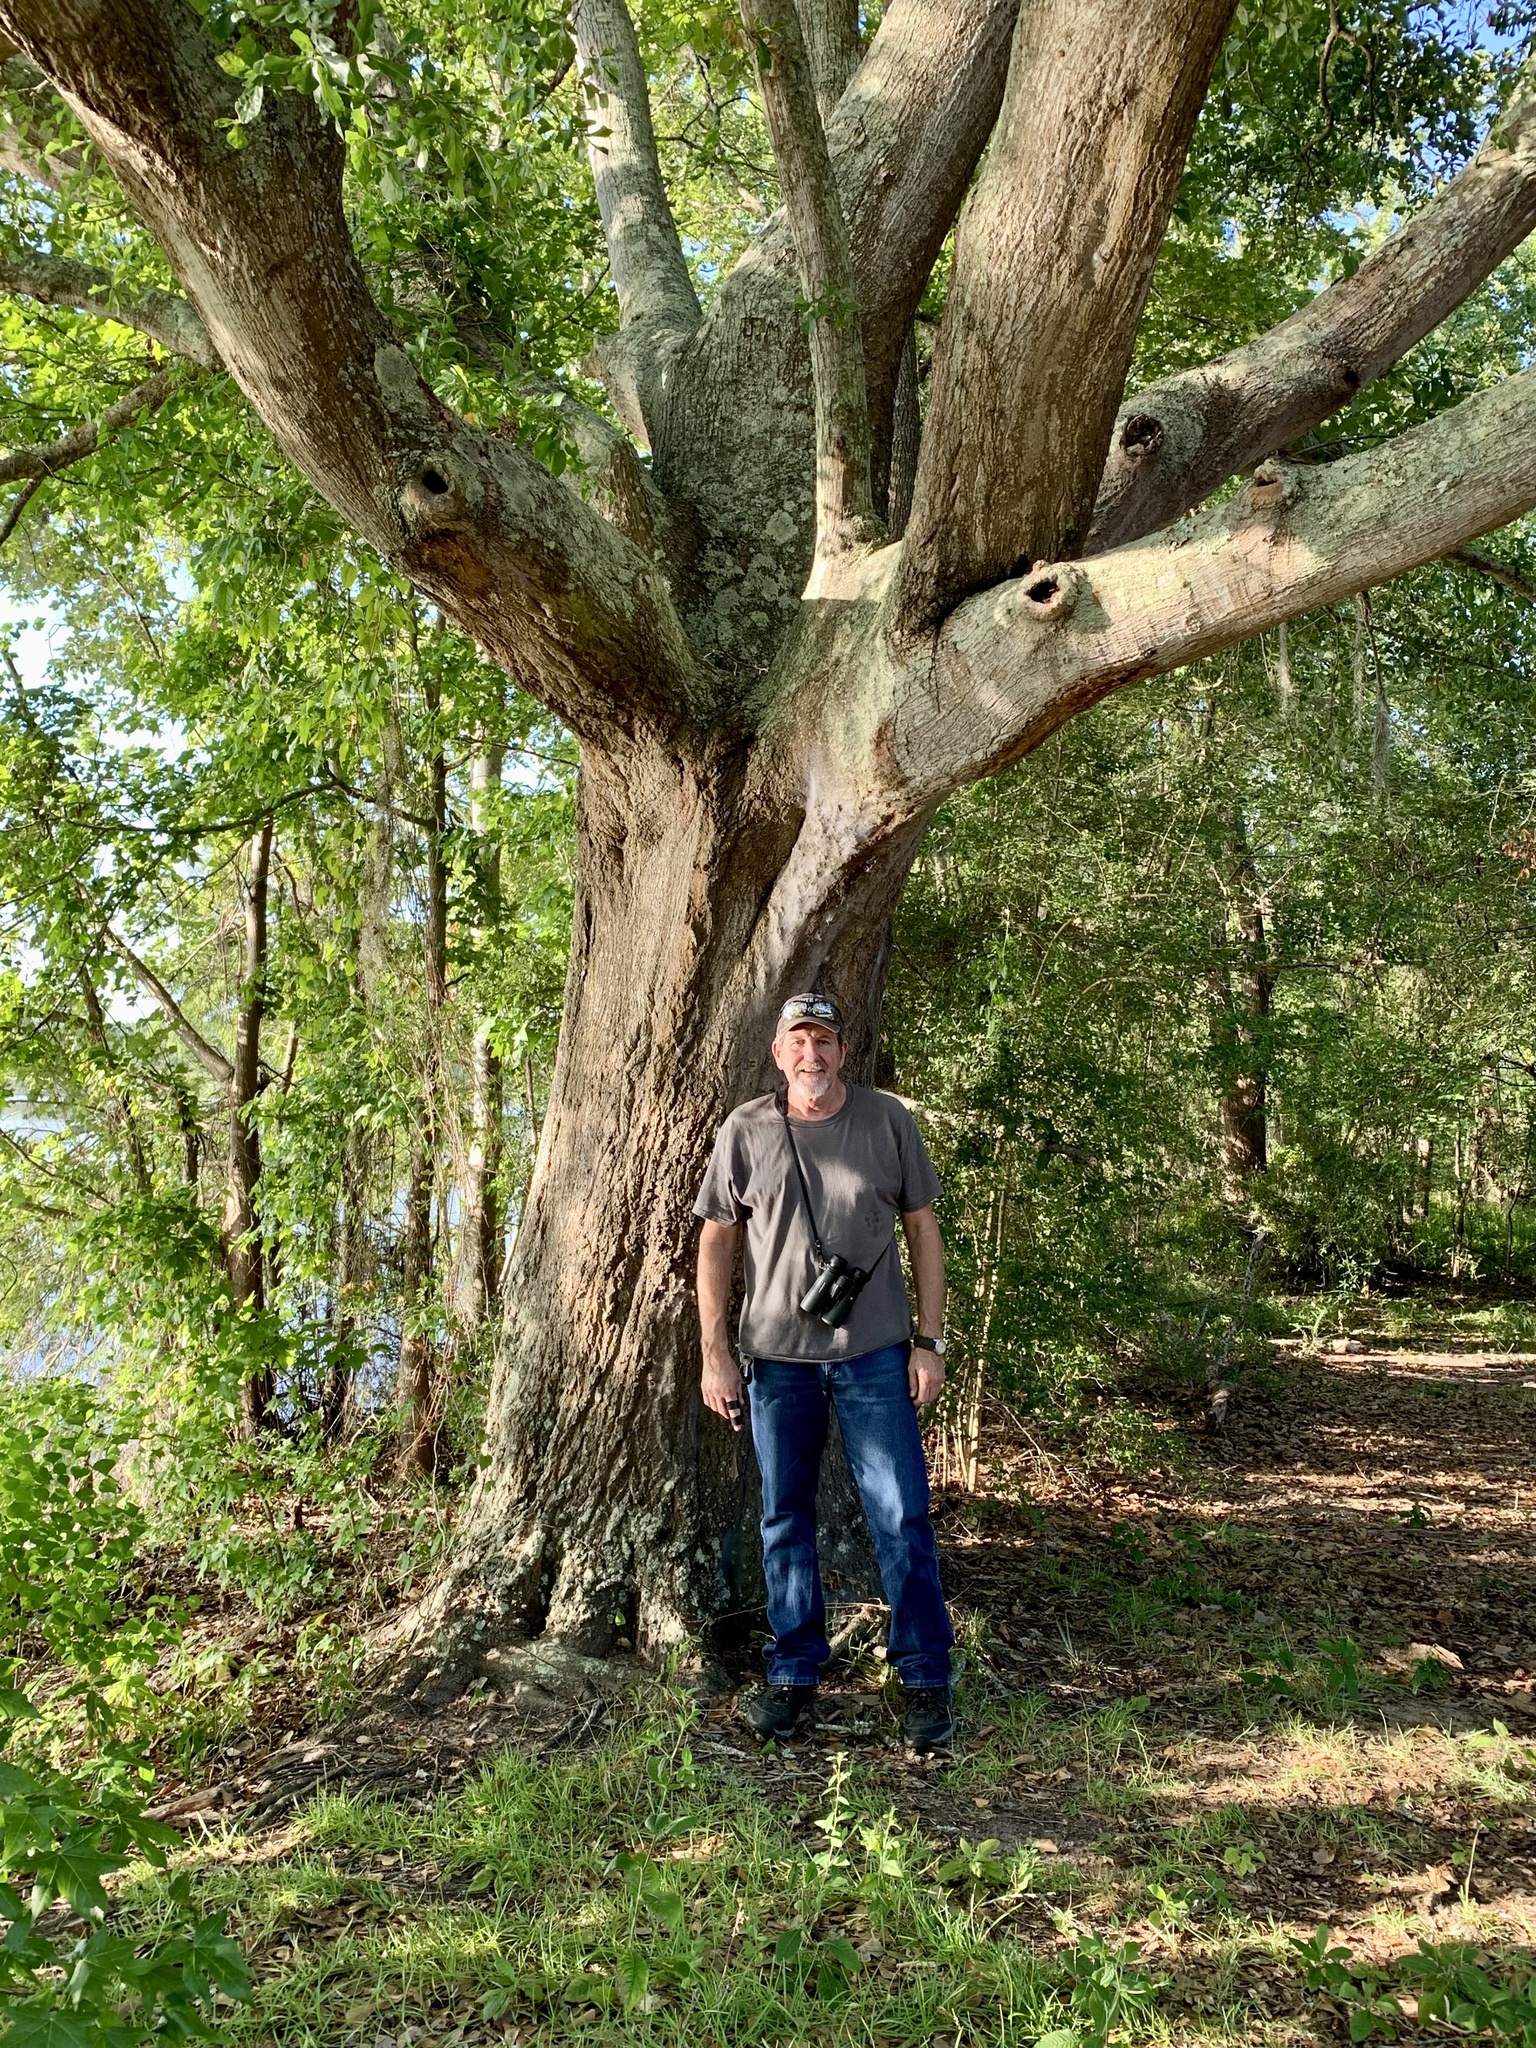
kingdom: Plantae
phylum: Tracheophyta
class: Magnoliopsida
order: Fagales
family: Fagaceae
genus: Quercus
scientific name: Quercus nigra
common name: Water oak
